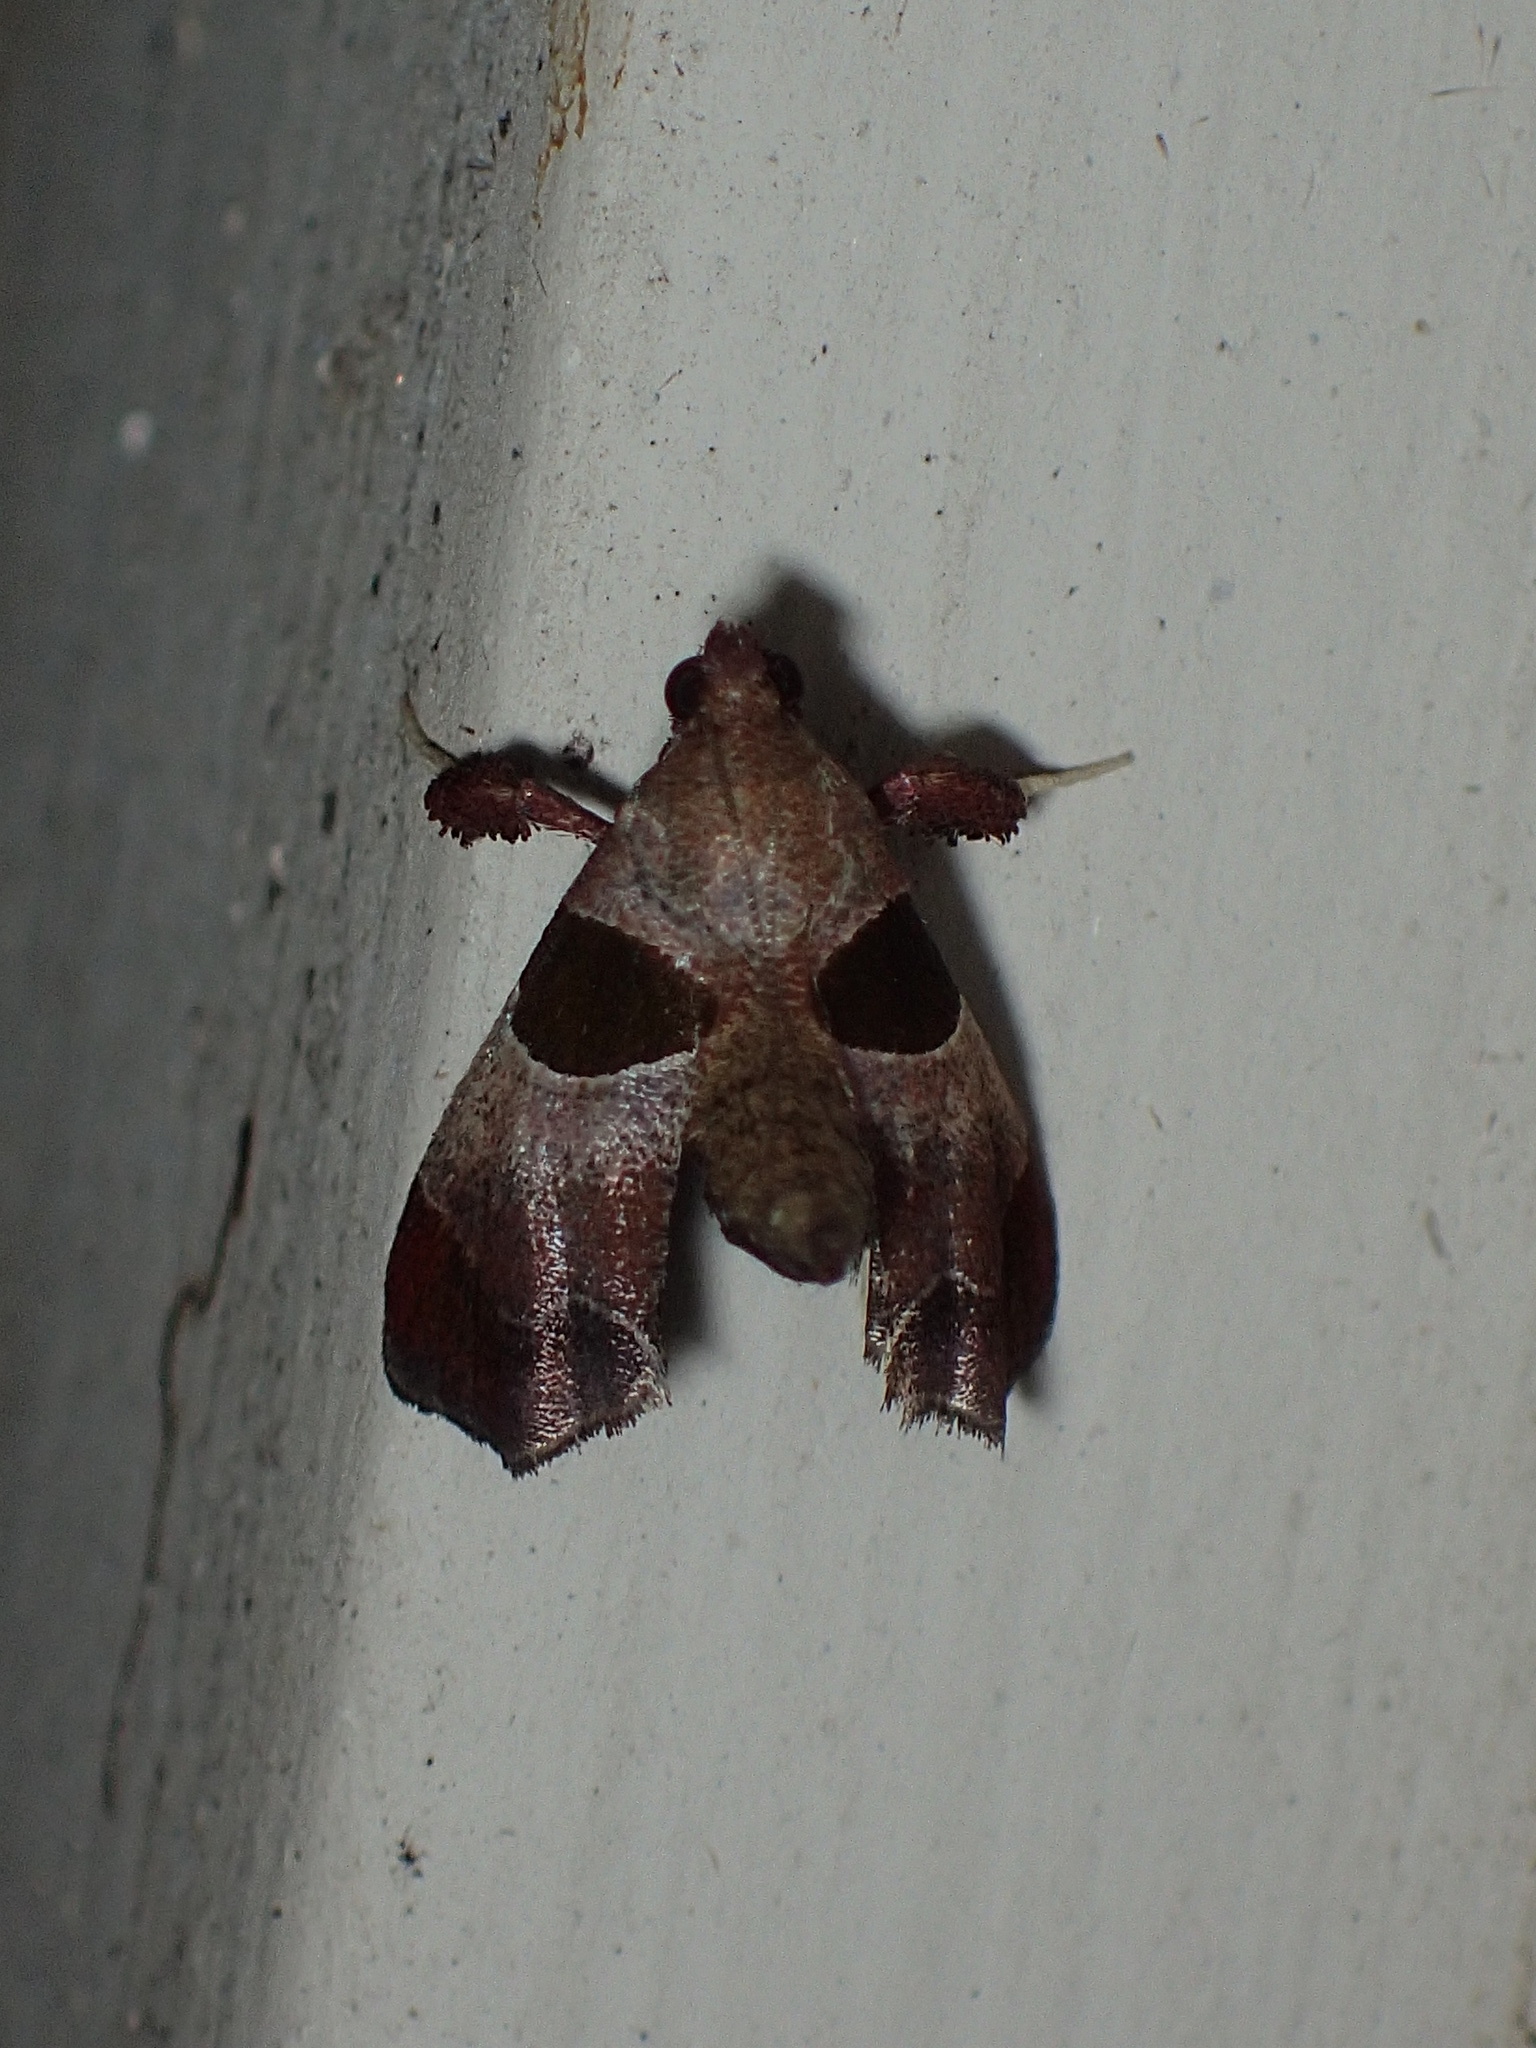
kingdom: Animalia
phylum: Arthropoda
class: Insecta
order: Lepidoptera
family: Pyralidae
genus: Tosale
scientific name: Tosale oviplagalis
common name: Dimorphic tosale moth
